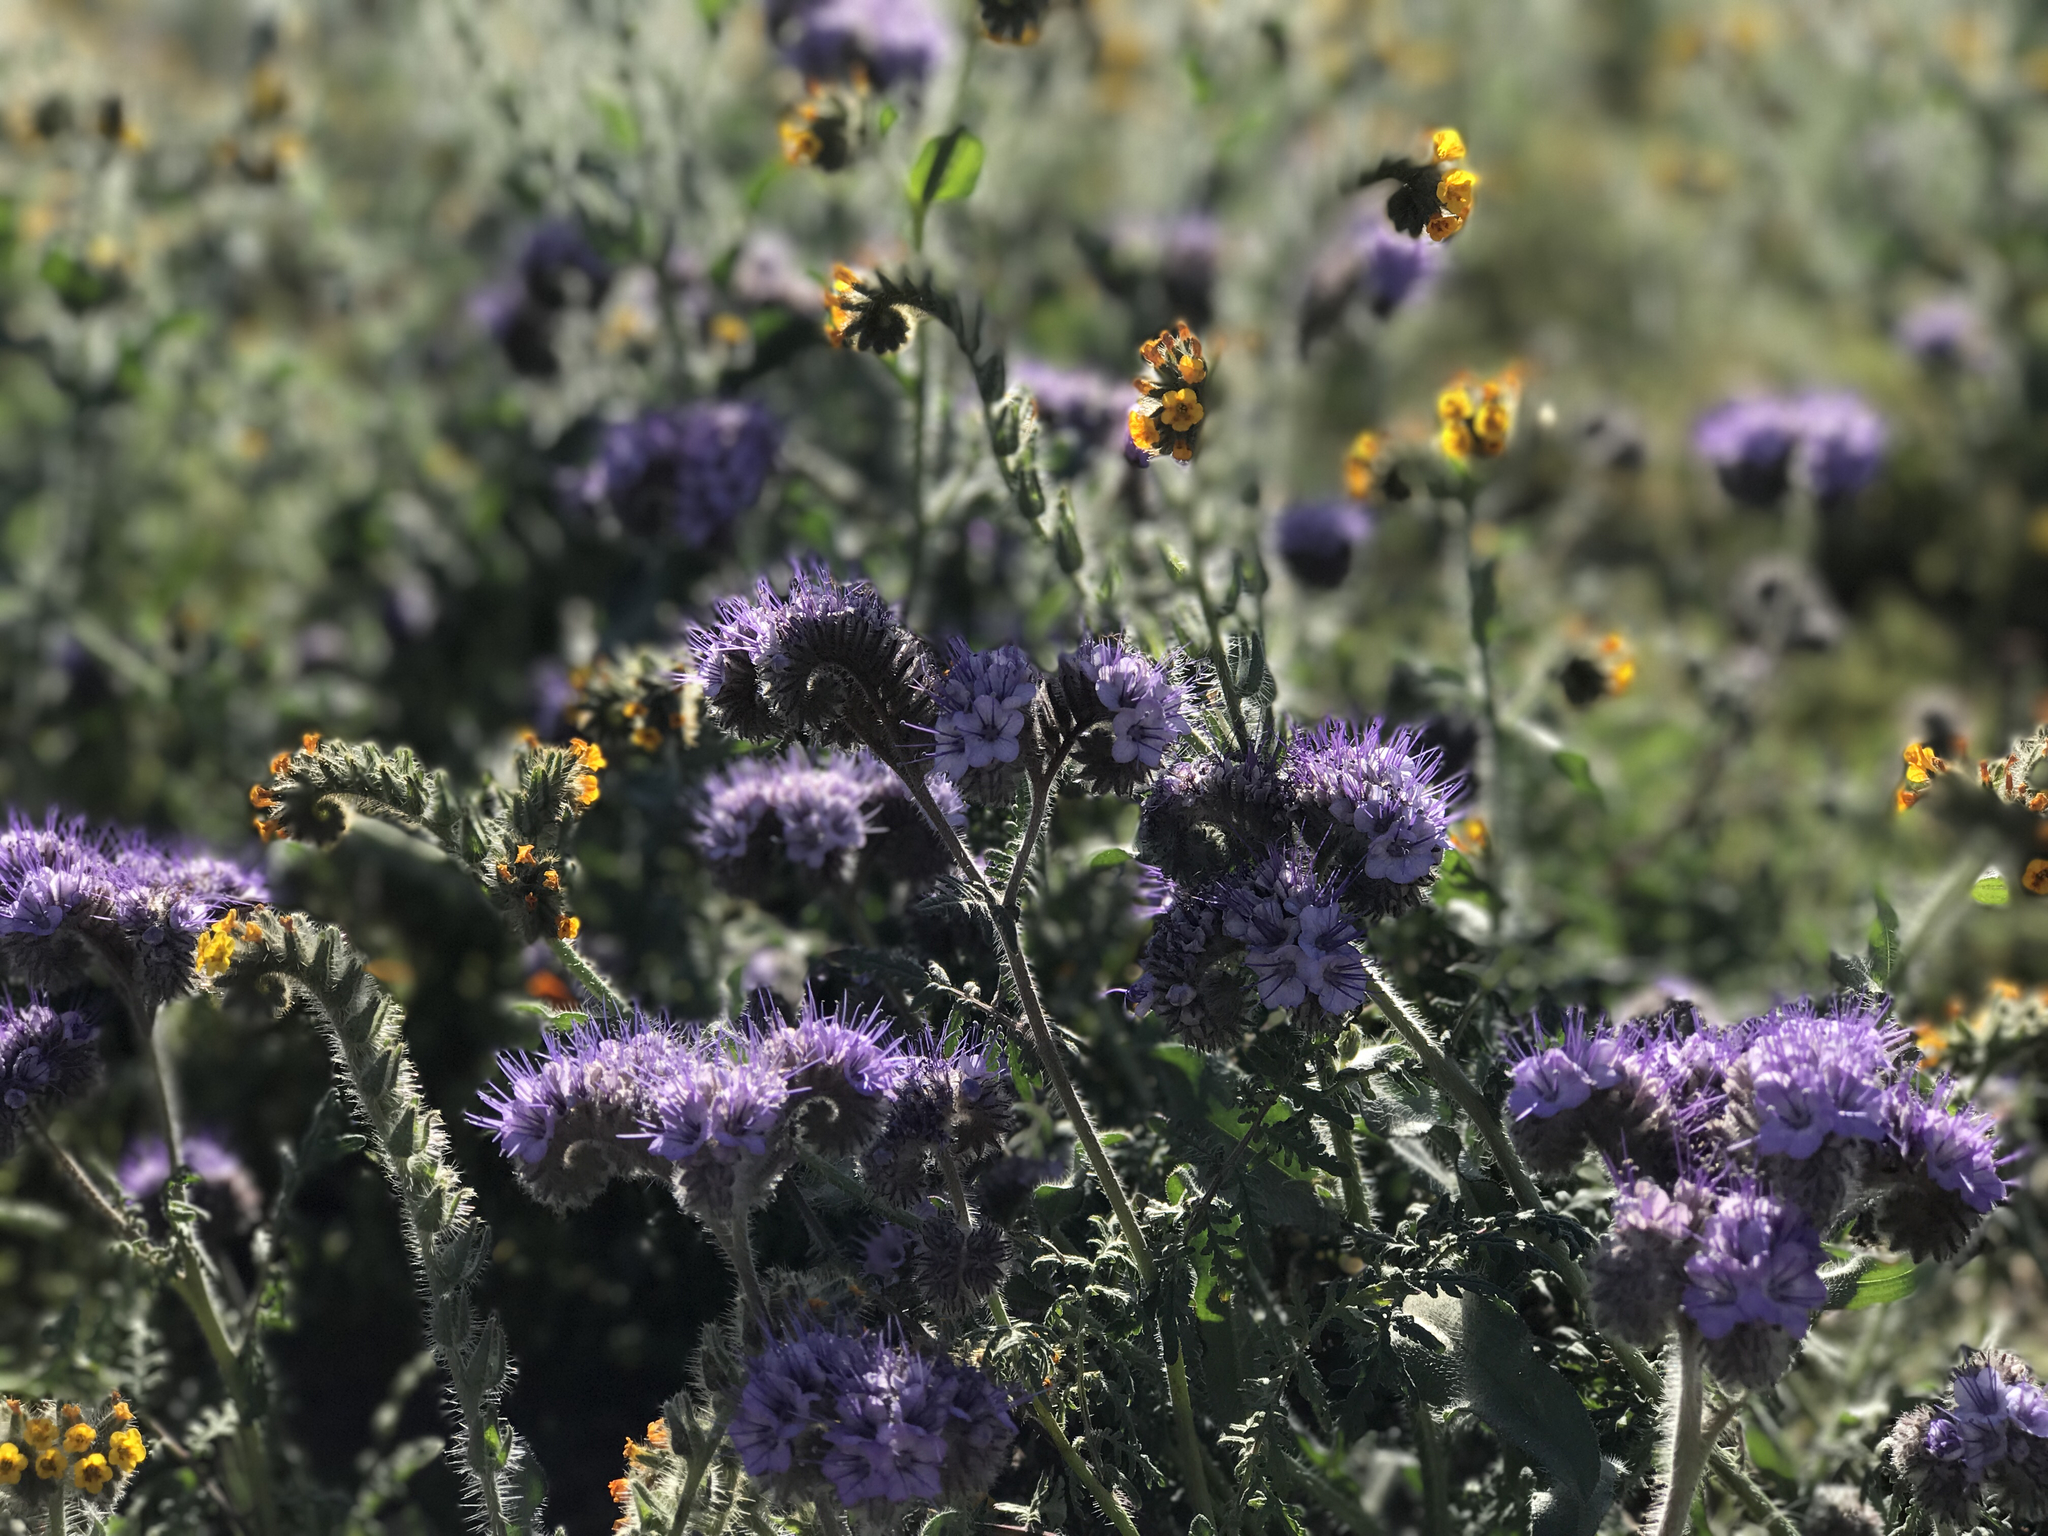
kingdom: Plantae
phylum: Tracheophyta
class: Magnoliopsida
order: Boraginales
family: Hydrophyllaceae
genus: Phacelia
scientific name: Phacelia tanacetifolia
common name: Phacelia
